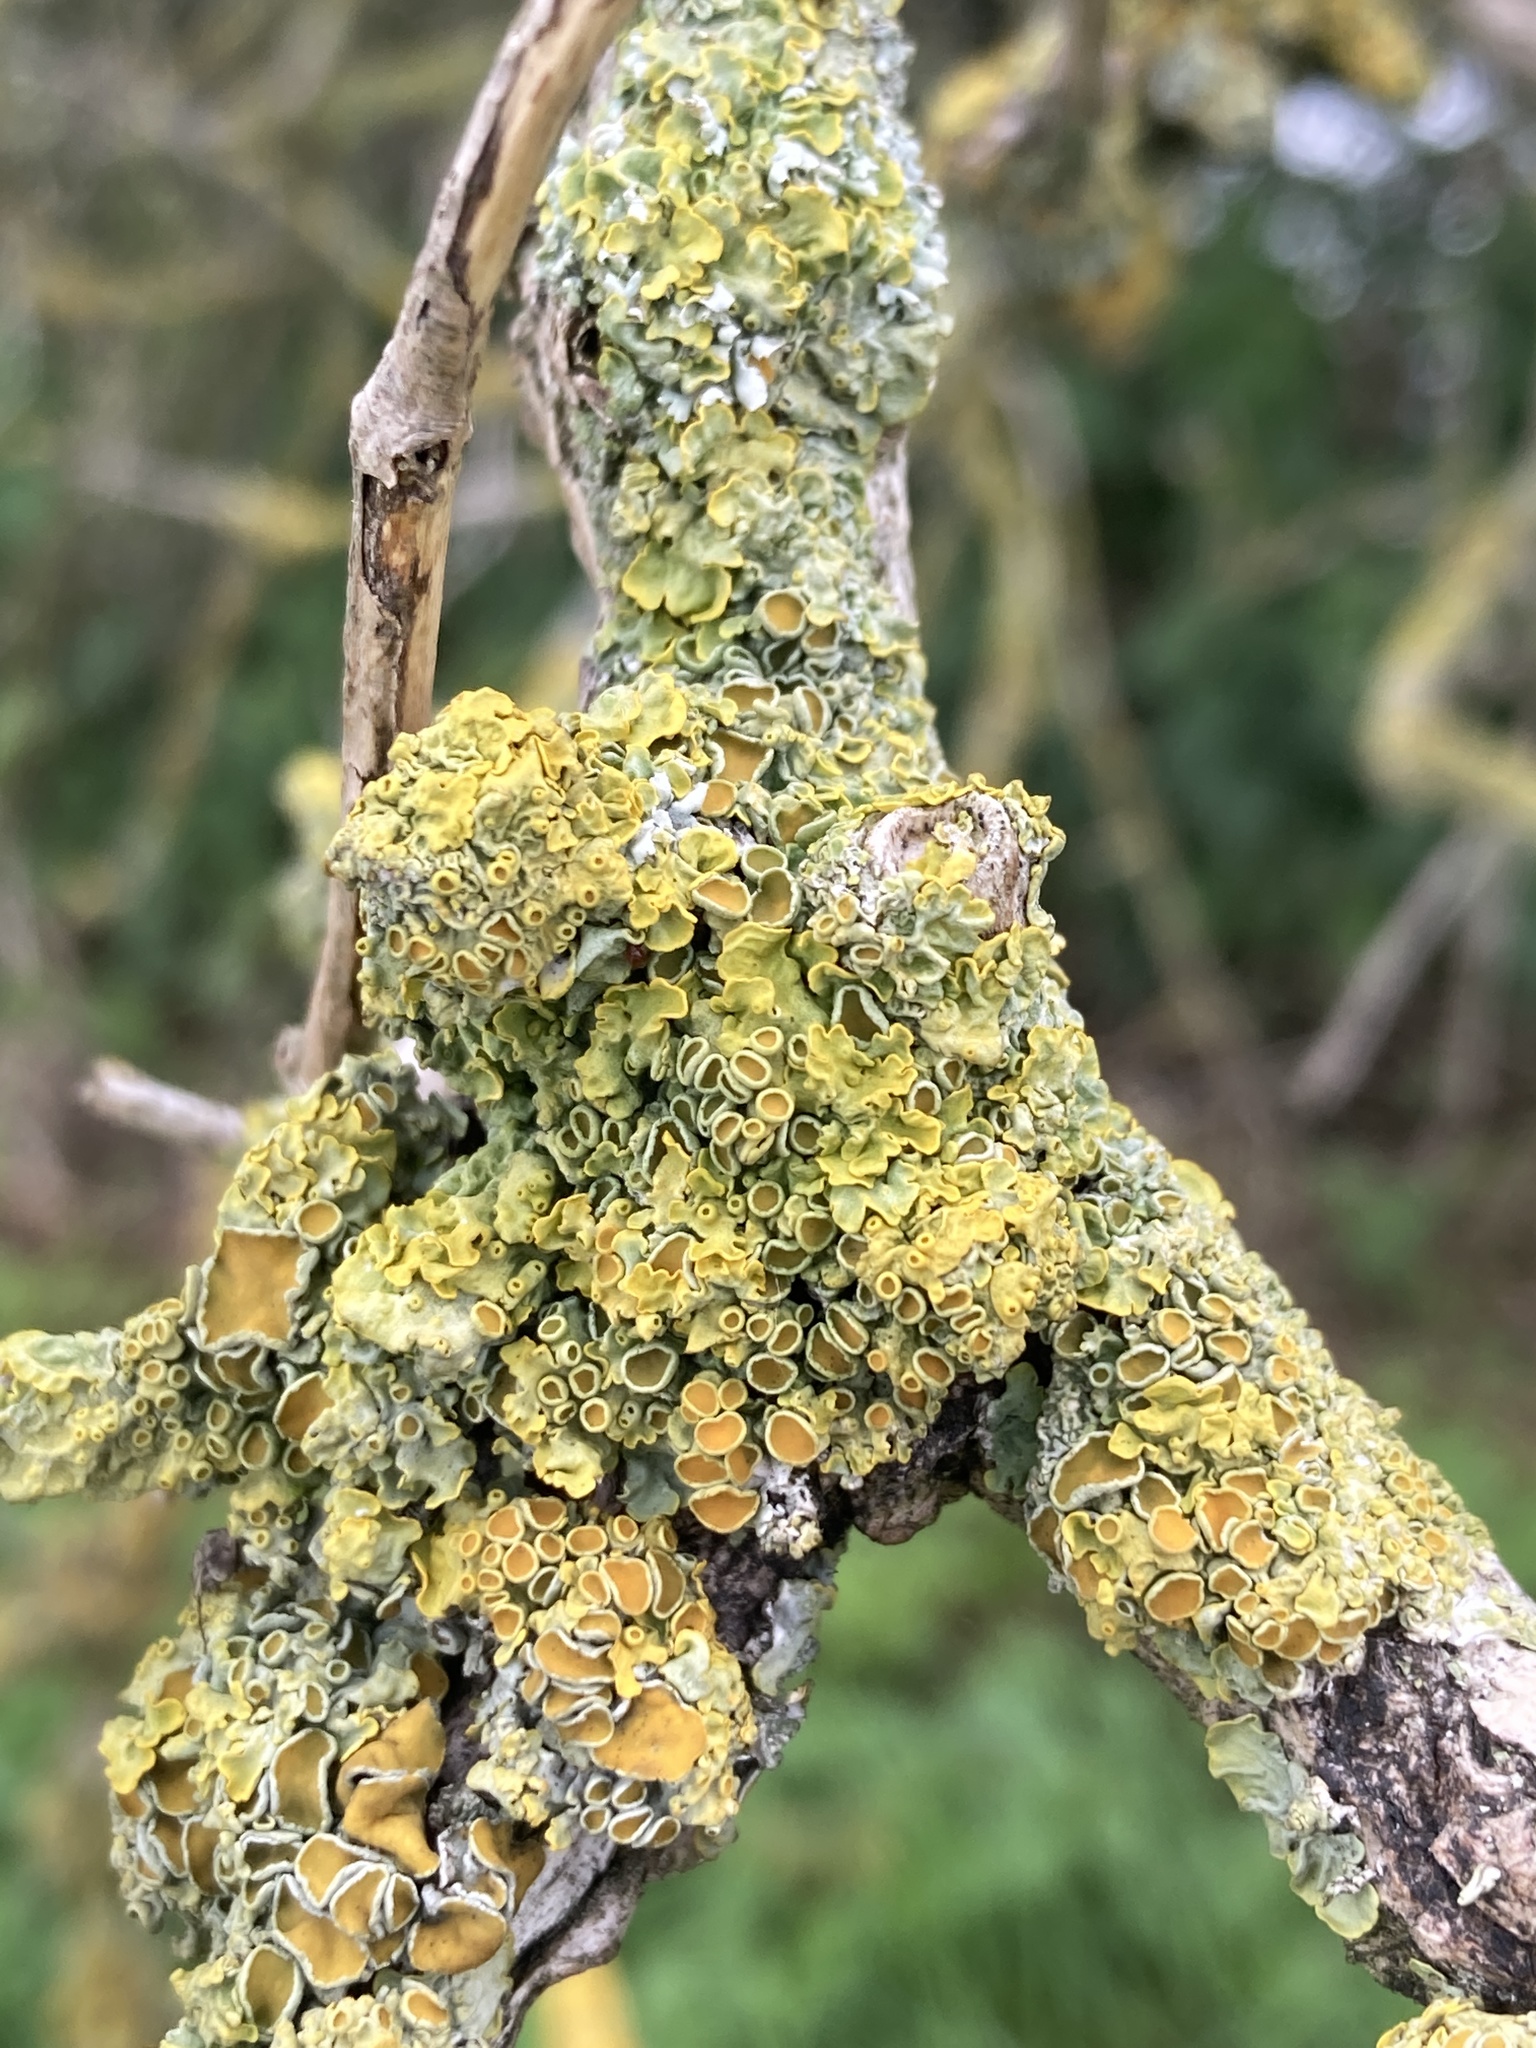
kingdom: Fungi
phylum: Ascomycota
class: Lecanoromycetes
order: Teloschistales
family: Teloschistaceae
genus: Xanthoria
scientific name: Xanthoria parietina
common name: Common orange lichen
